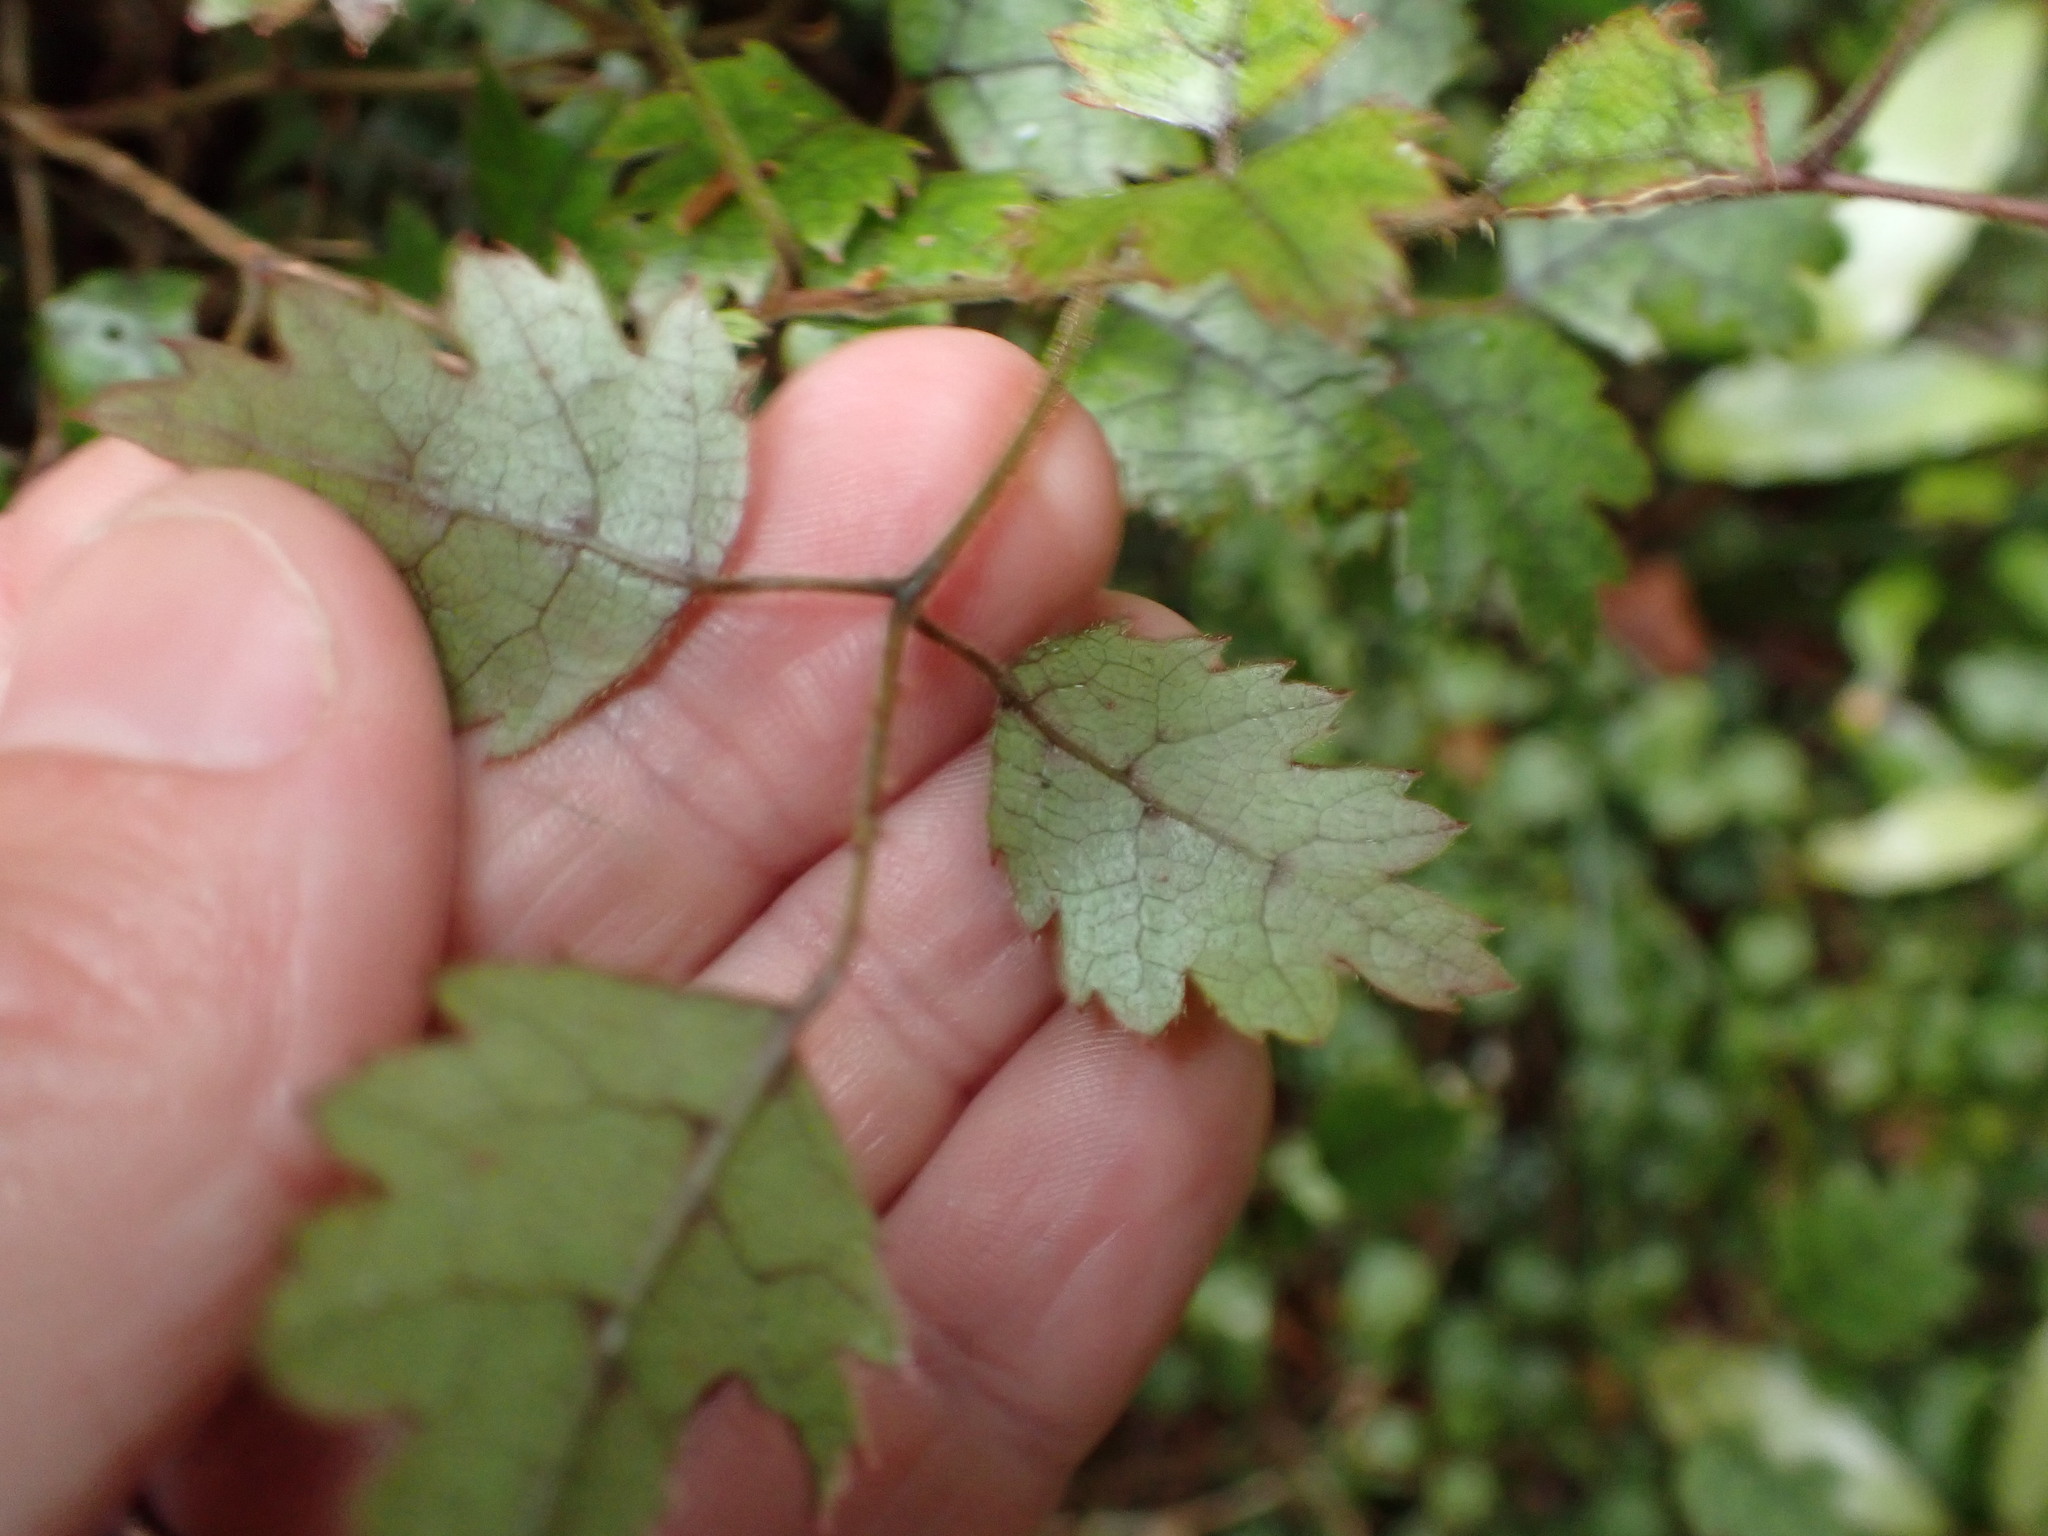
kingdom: Plantae
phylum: Tracheophyta
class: Magnoliopsida
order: Rosales
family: Rosaceae
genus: Rubus
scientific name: Rubus australis
